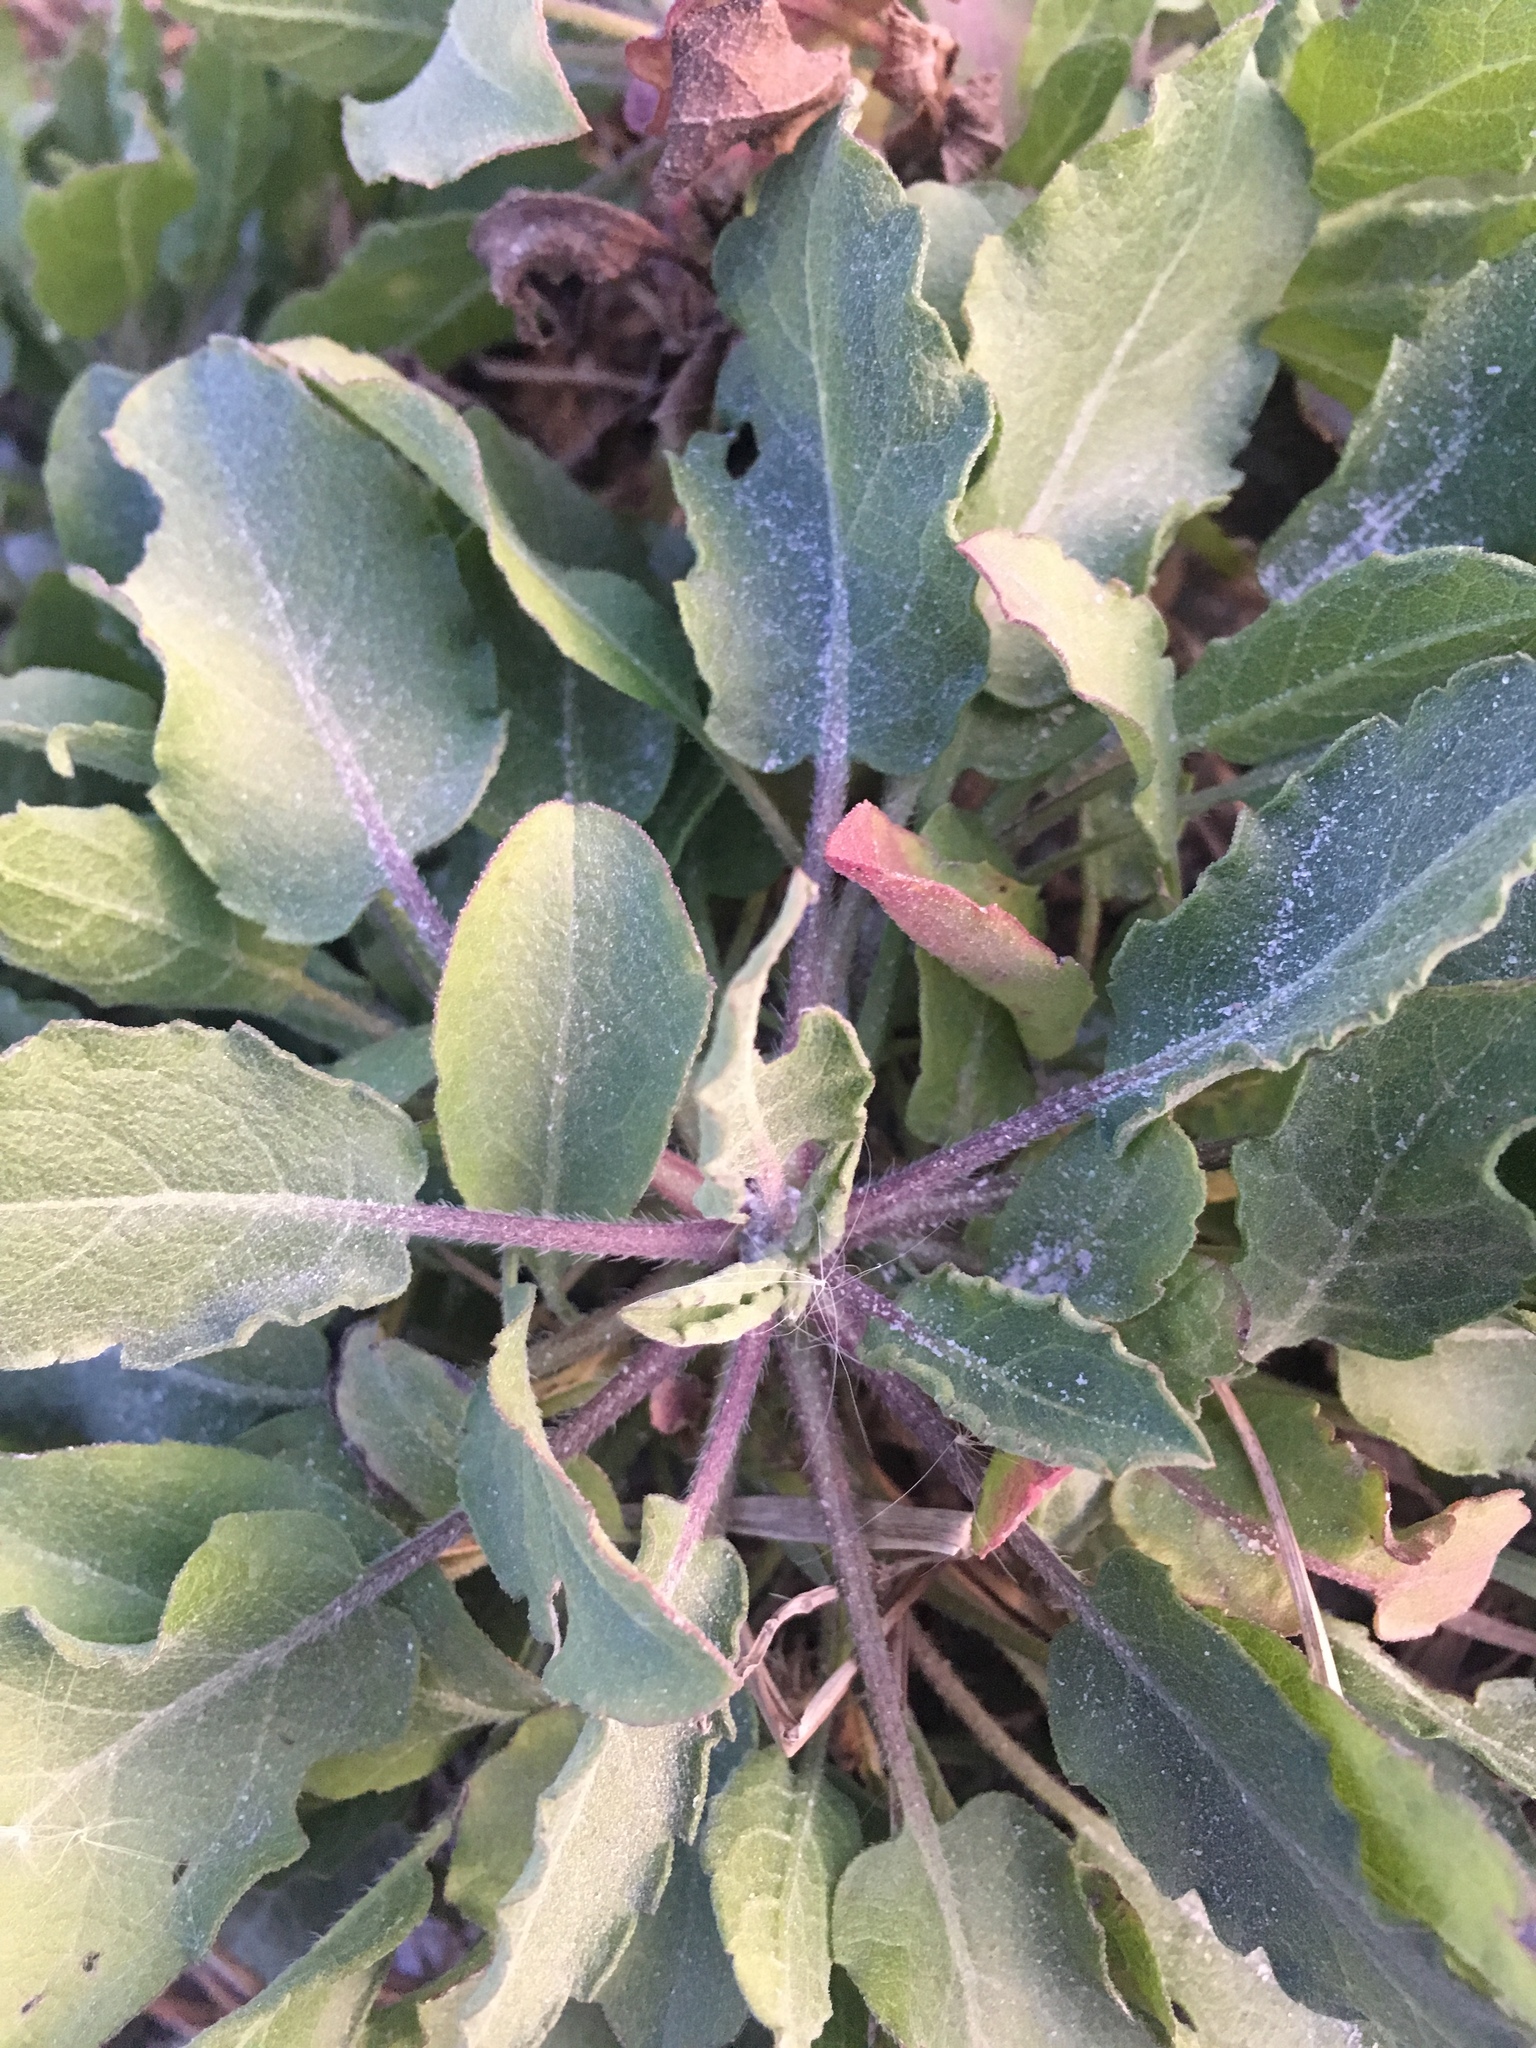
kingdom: Plantae
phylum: Tracheophyta
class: Magnoliopsida
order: Asterales
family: Asteraceae
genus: Heterotheca
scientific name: Heterotheca subaxillaris
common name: Camphorweed
